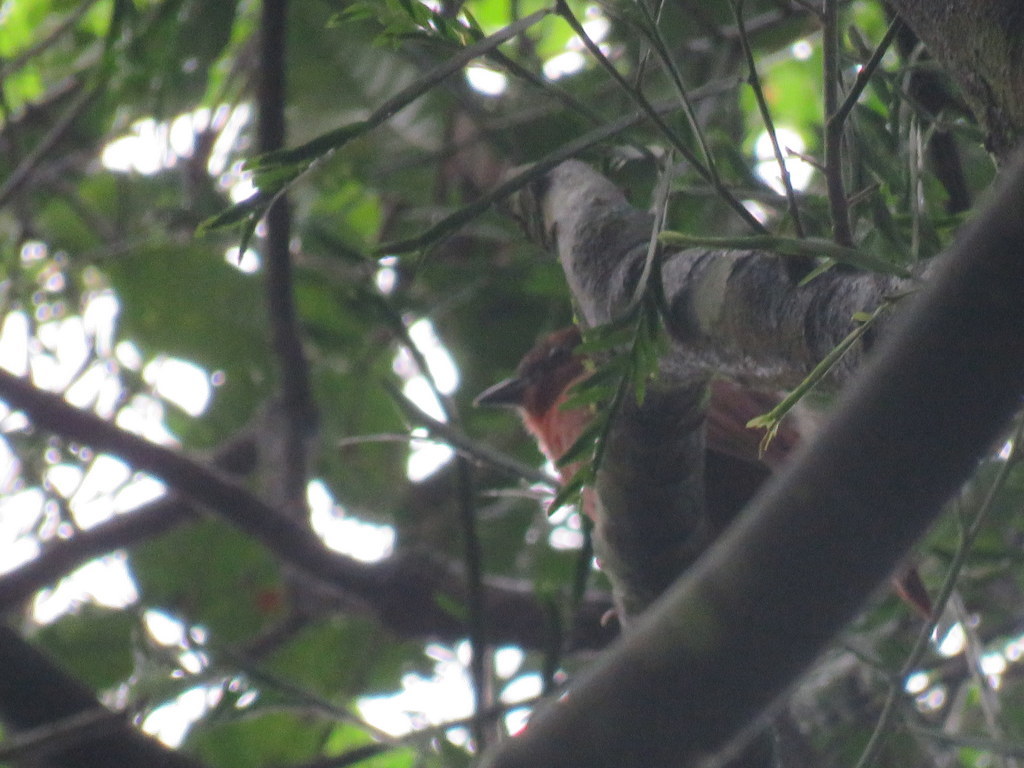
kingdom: Animalia
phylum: Chordata
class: Aves
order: Passeriformes
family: Cardinalidae
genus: Habia
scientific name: Habia rubica
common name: Red-crowned ant-tanager
